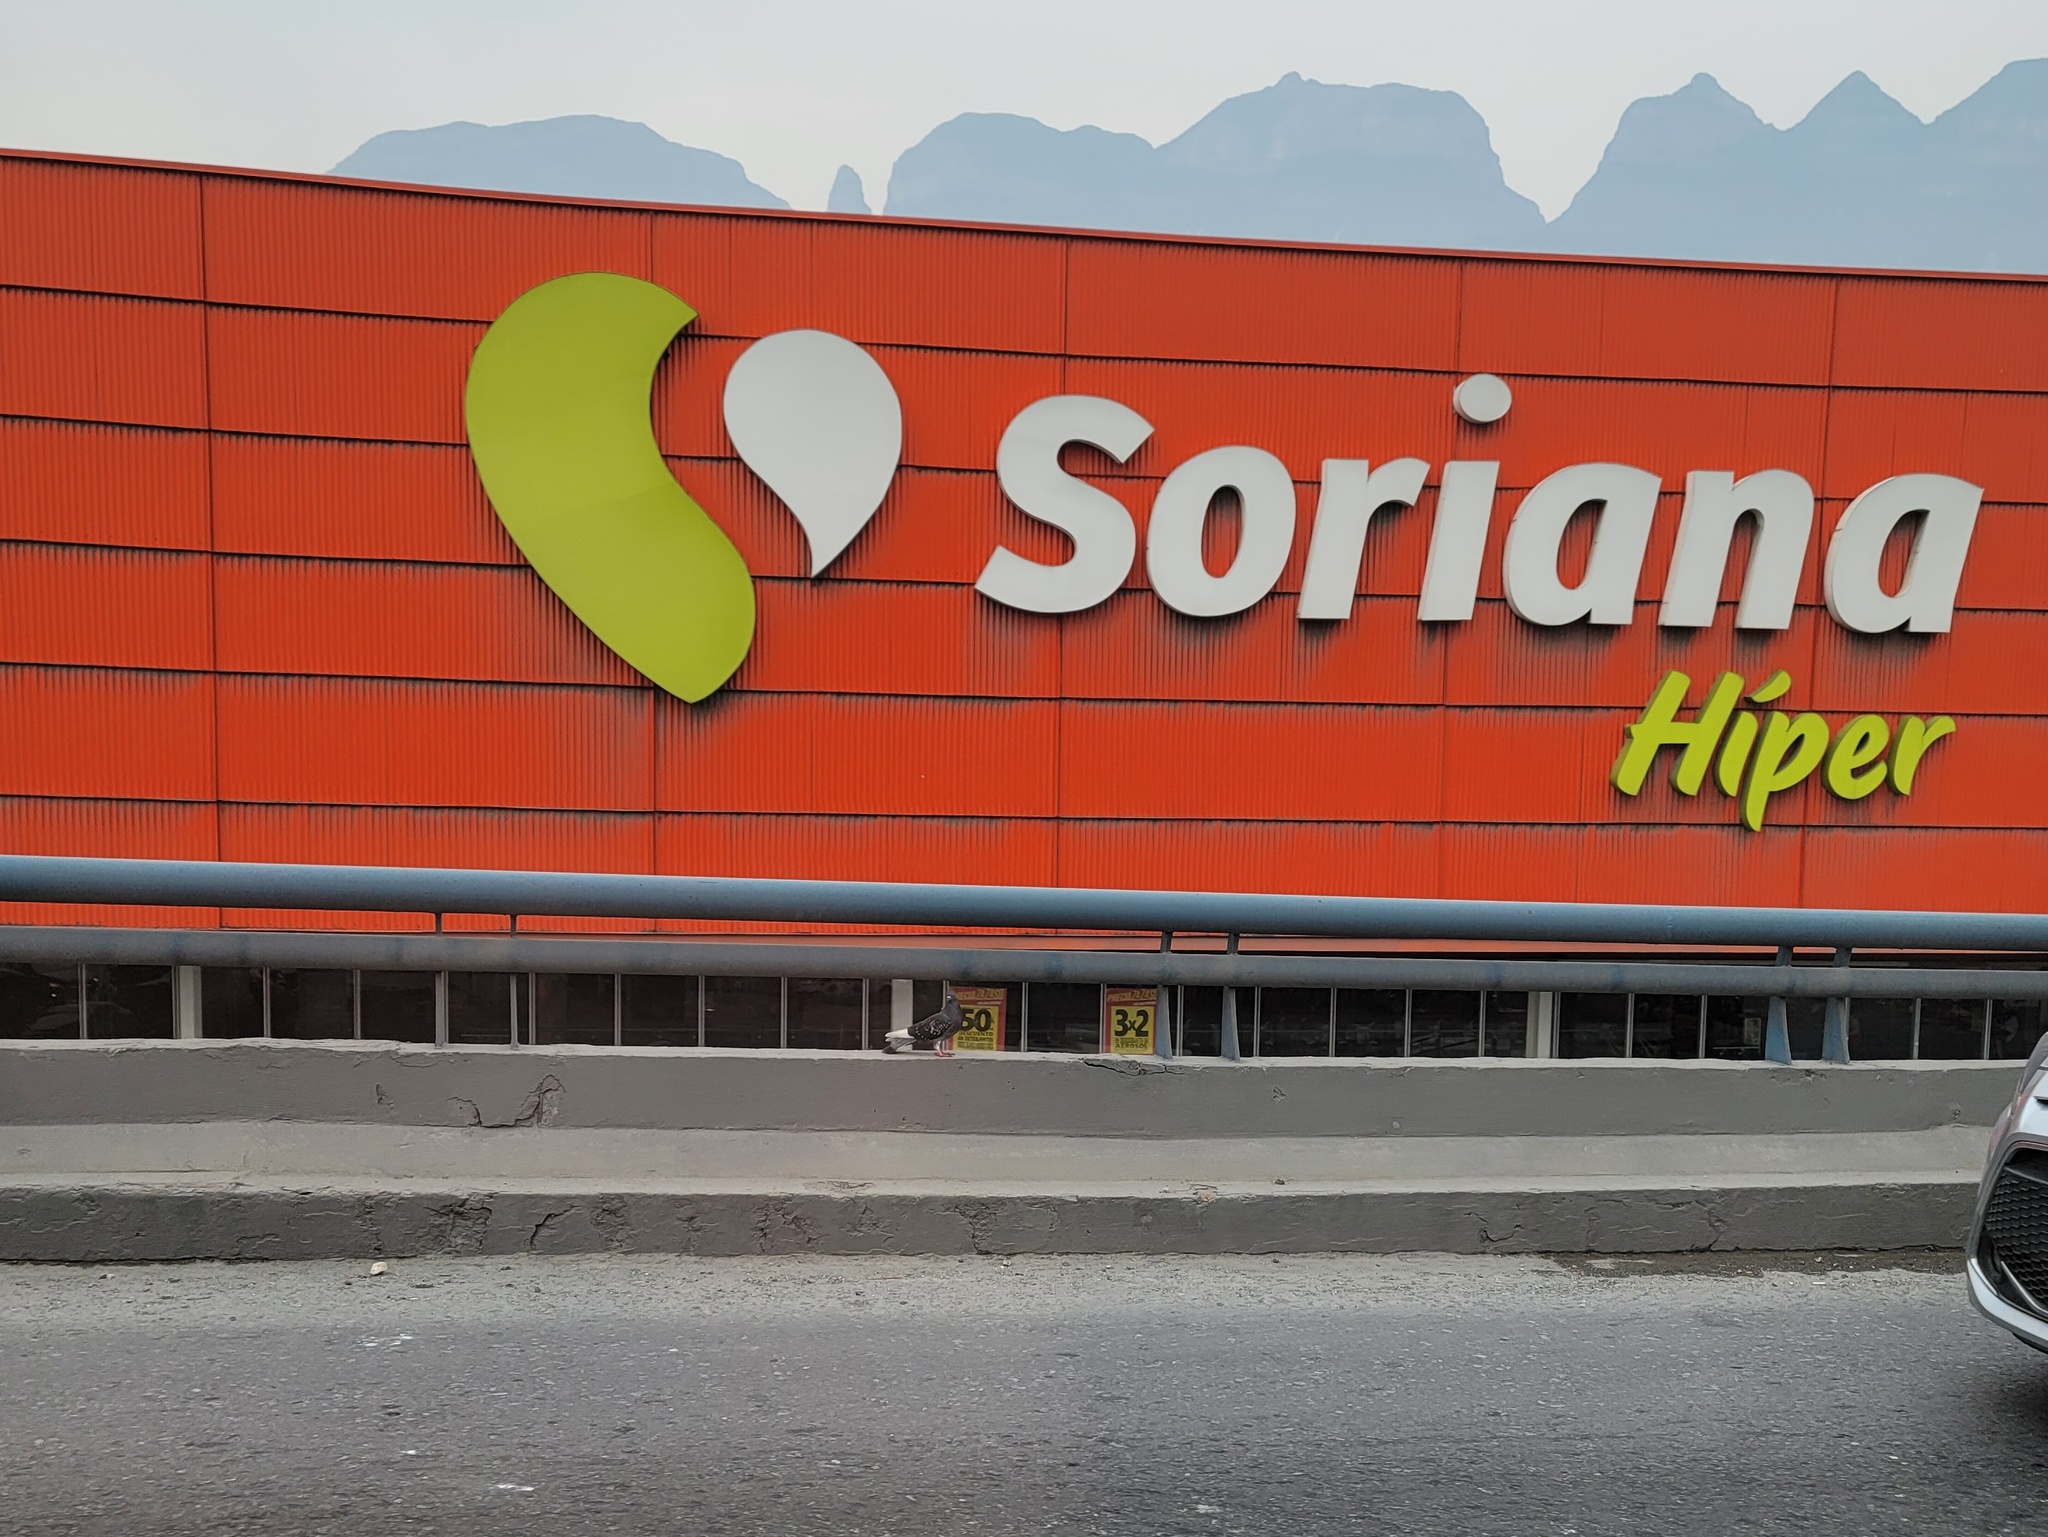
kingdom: Animalia
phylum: Chordata
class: Aves
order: Columbiformes
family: Columbidae
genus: Columba
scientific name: Columba livia
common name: Rock pigeon
